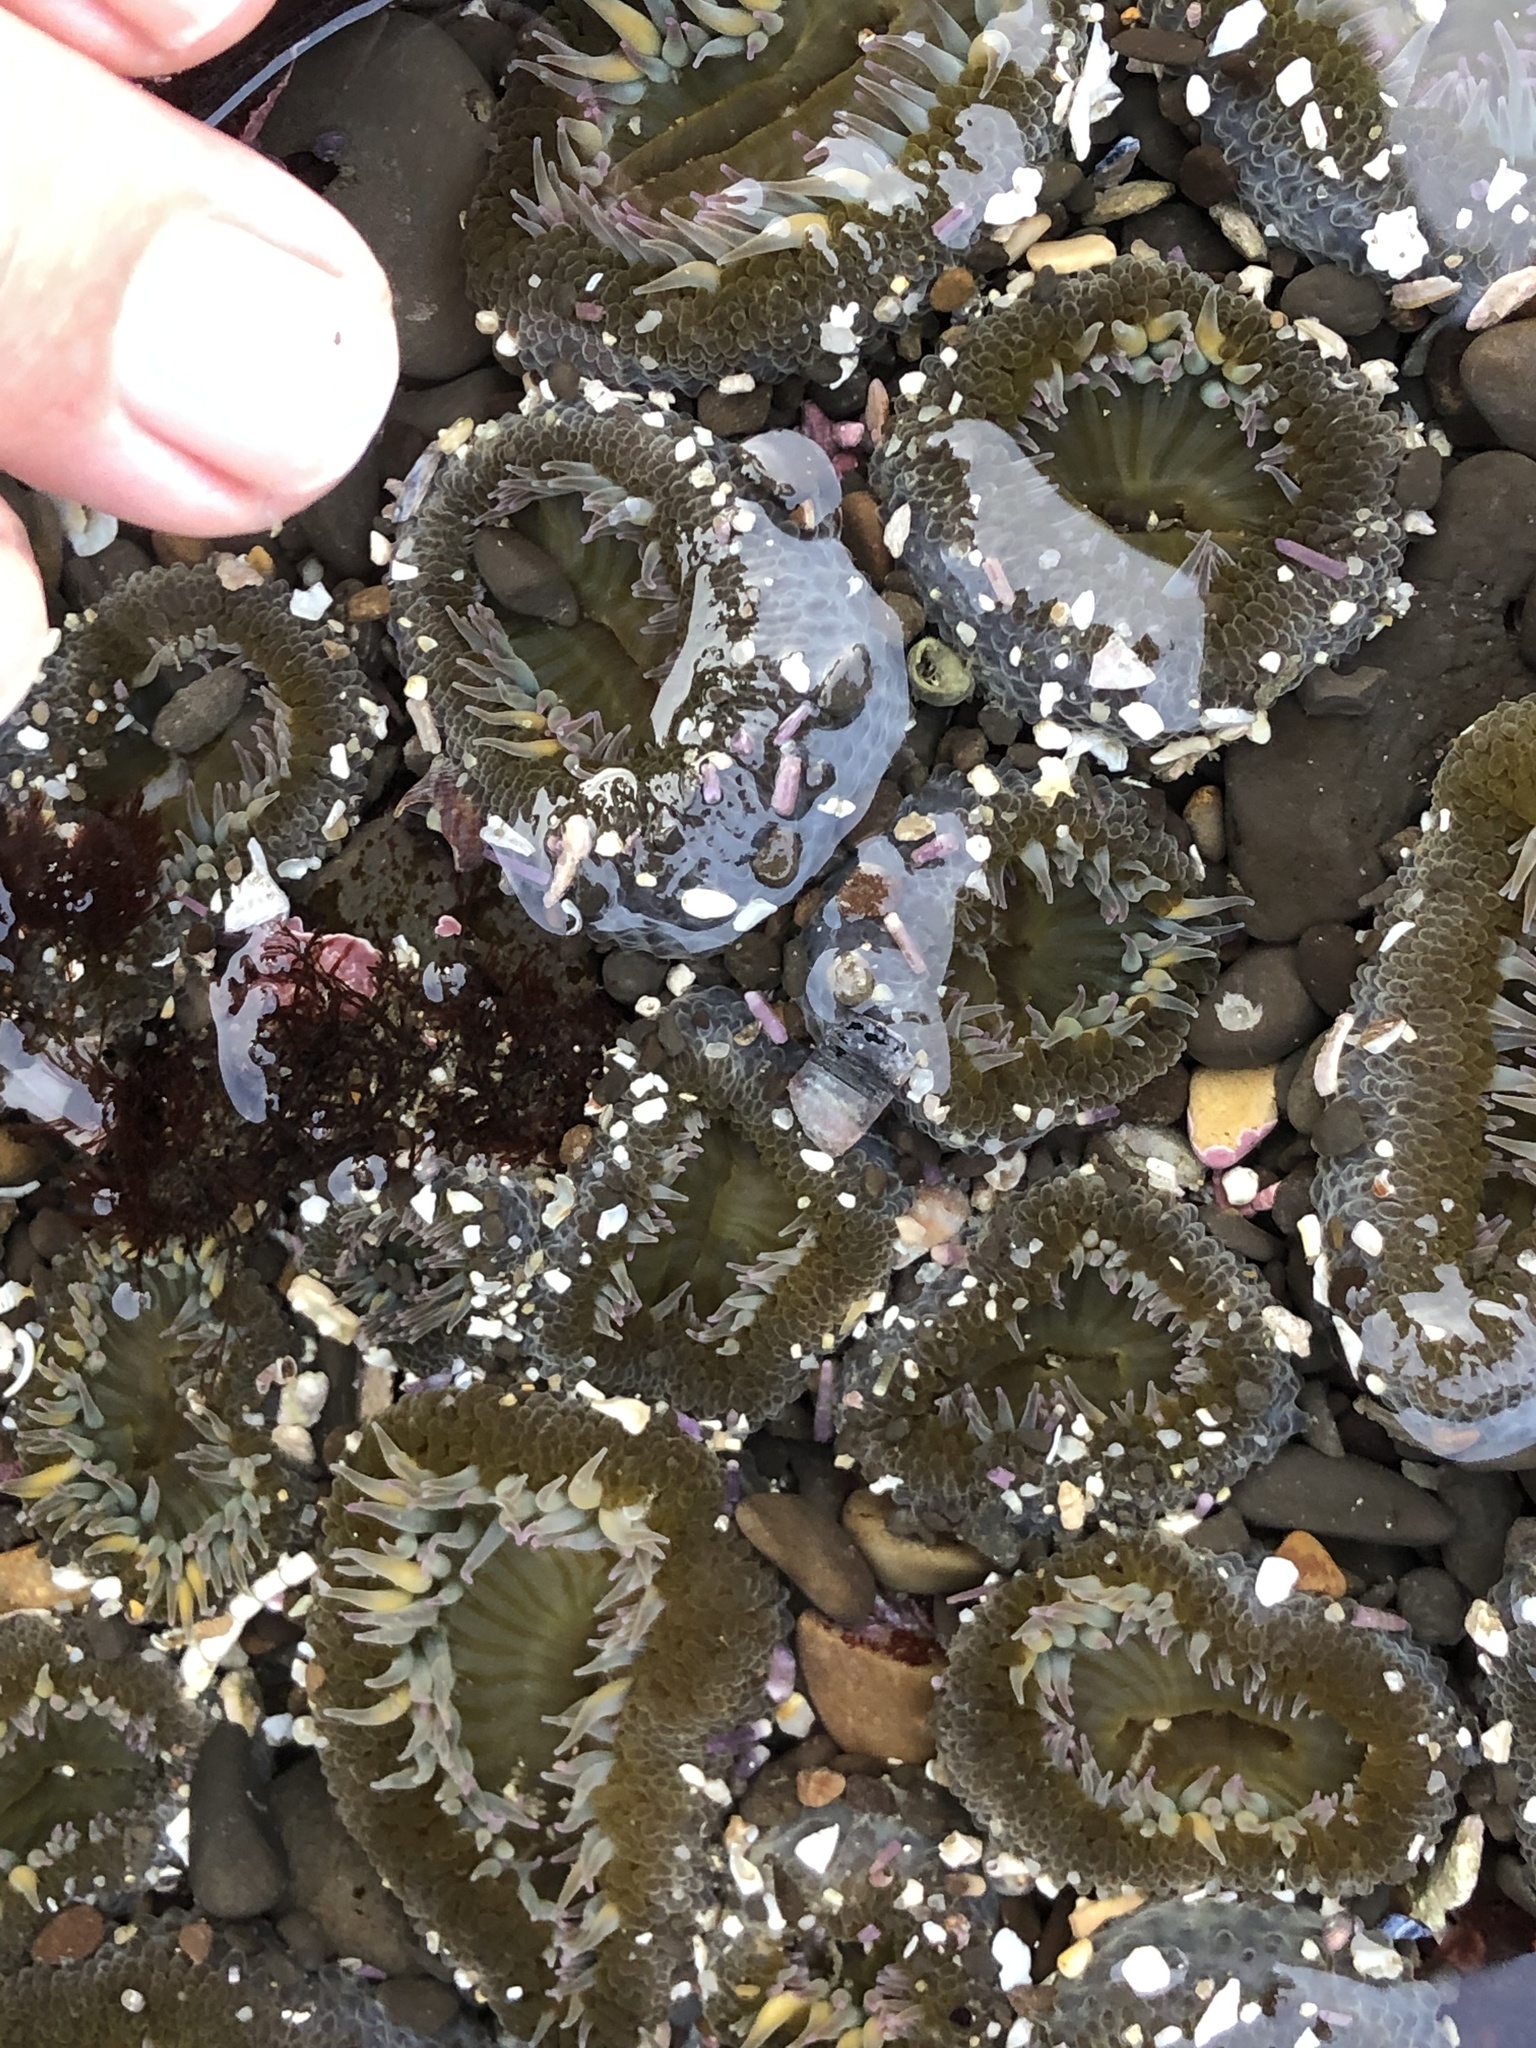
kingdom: Animalia
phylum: Cnidaria
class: Anthozoa
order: Actiniaria
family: Actiniidae
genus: Anthopleura
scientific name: Anthopleura elegantissima
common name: Clonal anemone
